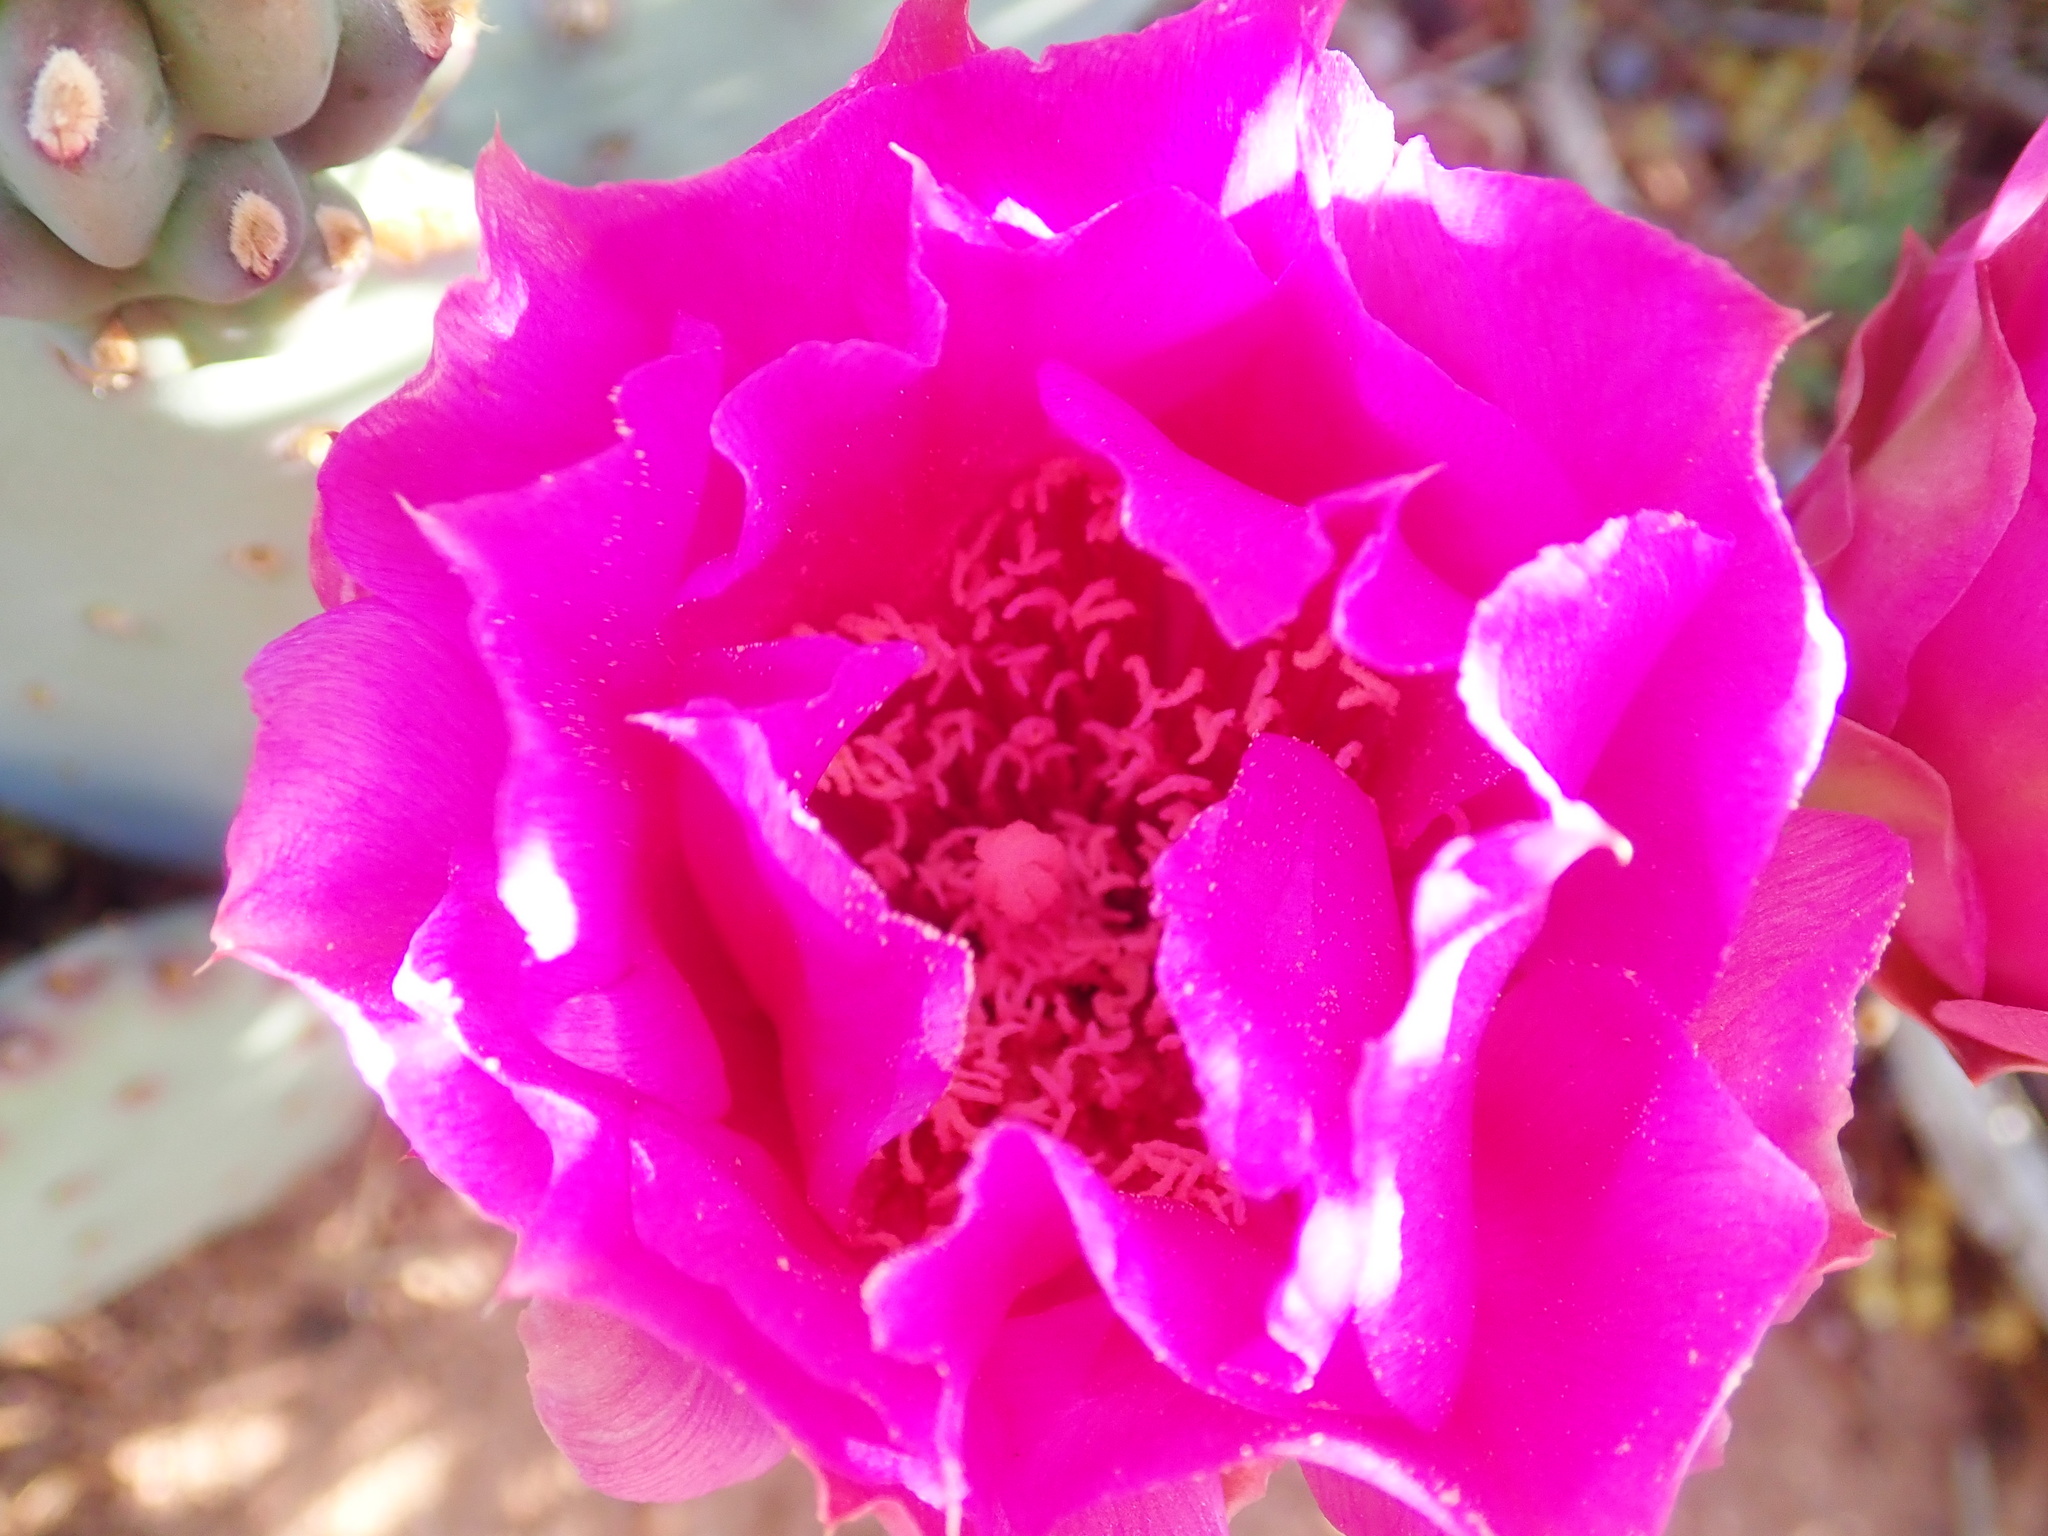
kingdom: Plantae
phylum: Tracheophyta
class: Magnoliopsida
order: Caryophyllales
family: Cactaceae
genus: Opuntia
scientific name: Opuntia basilaris
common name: Beavertail prickly-pear
